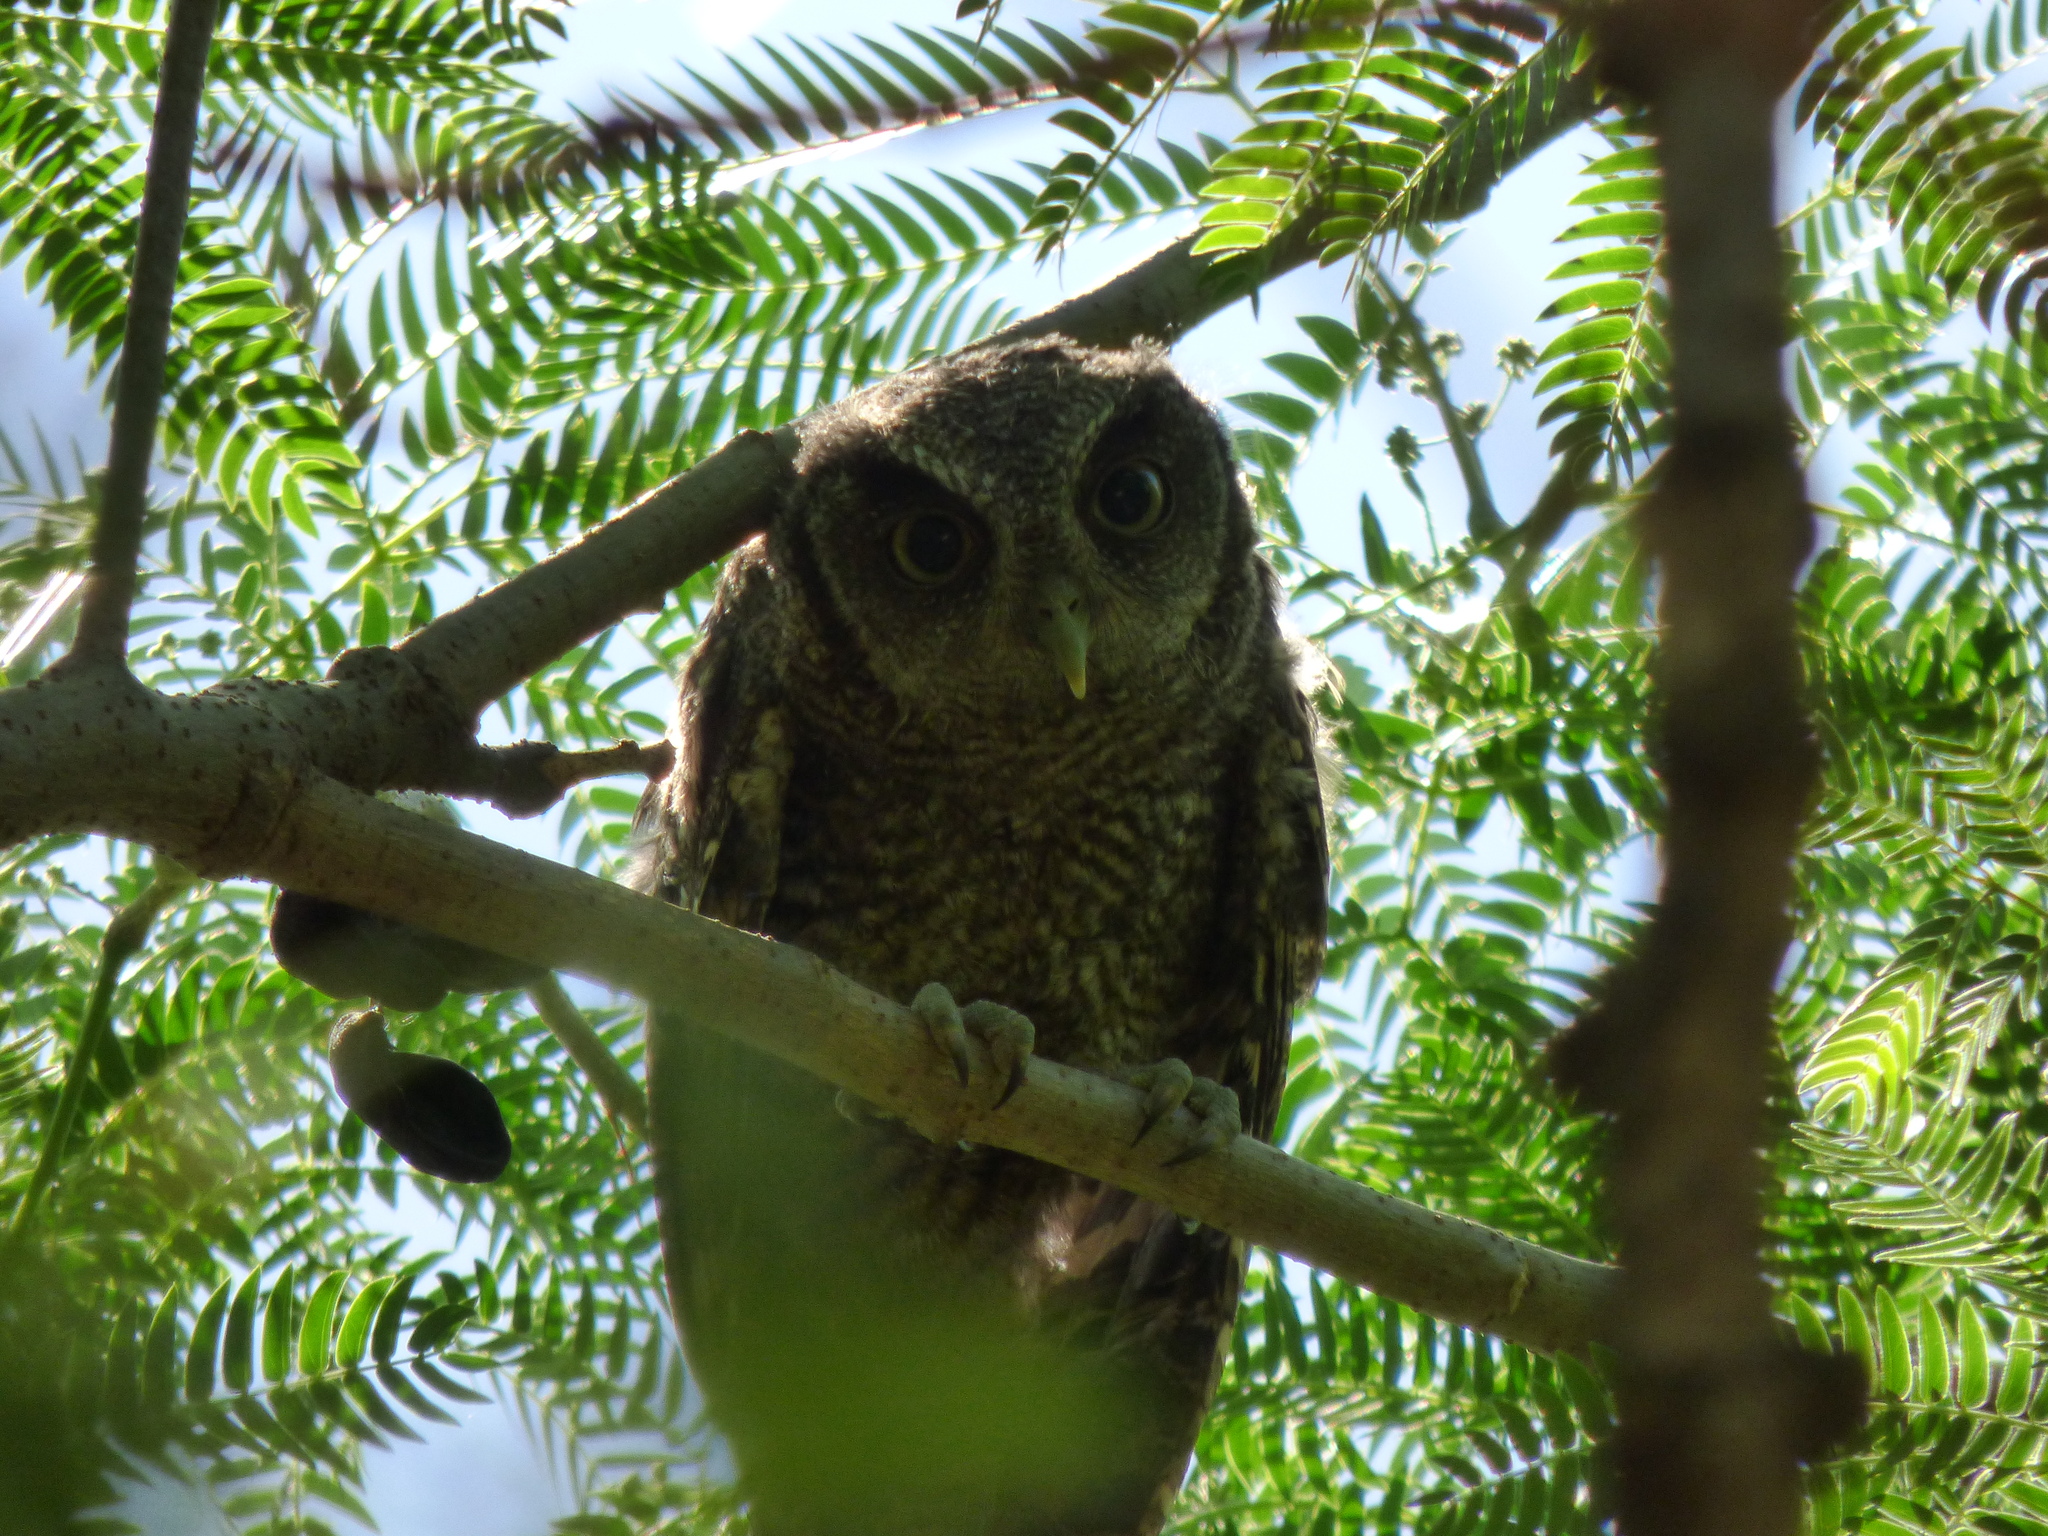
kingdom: Animalia
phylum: Chordata
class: Aves
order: Strigiformes
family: Strigidae
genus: Megascops
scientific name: Megascops choliba
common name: Tropical screech-owl
